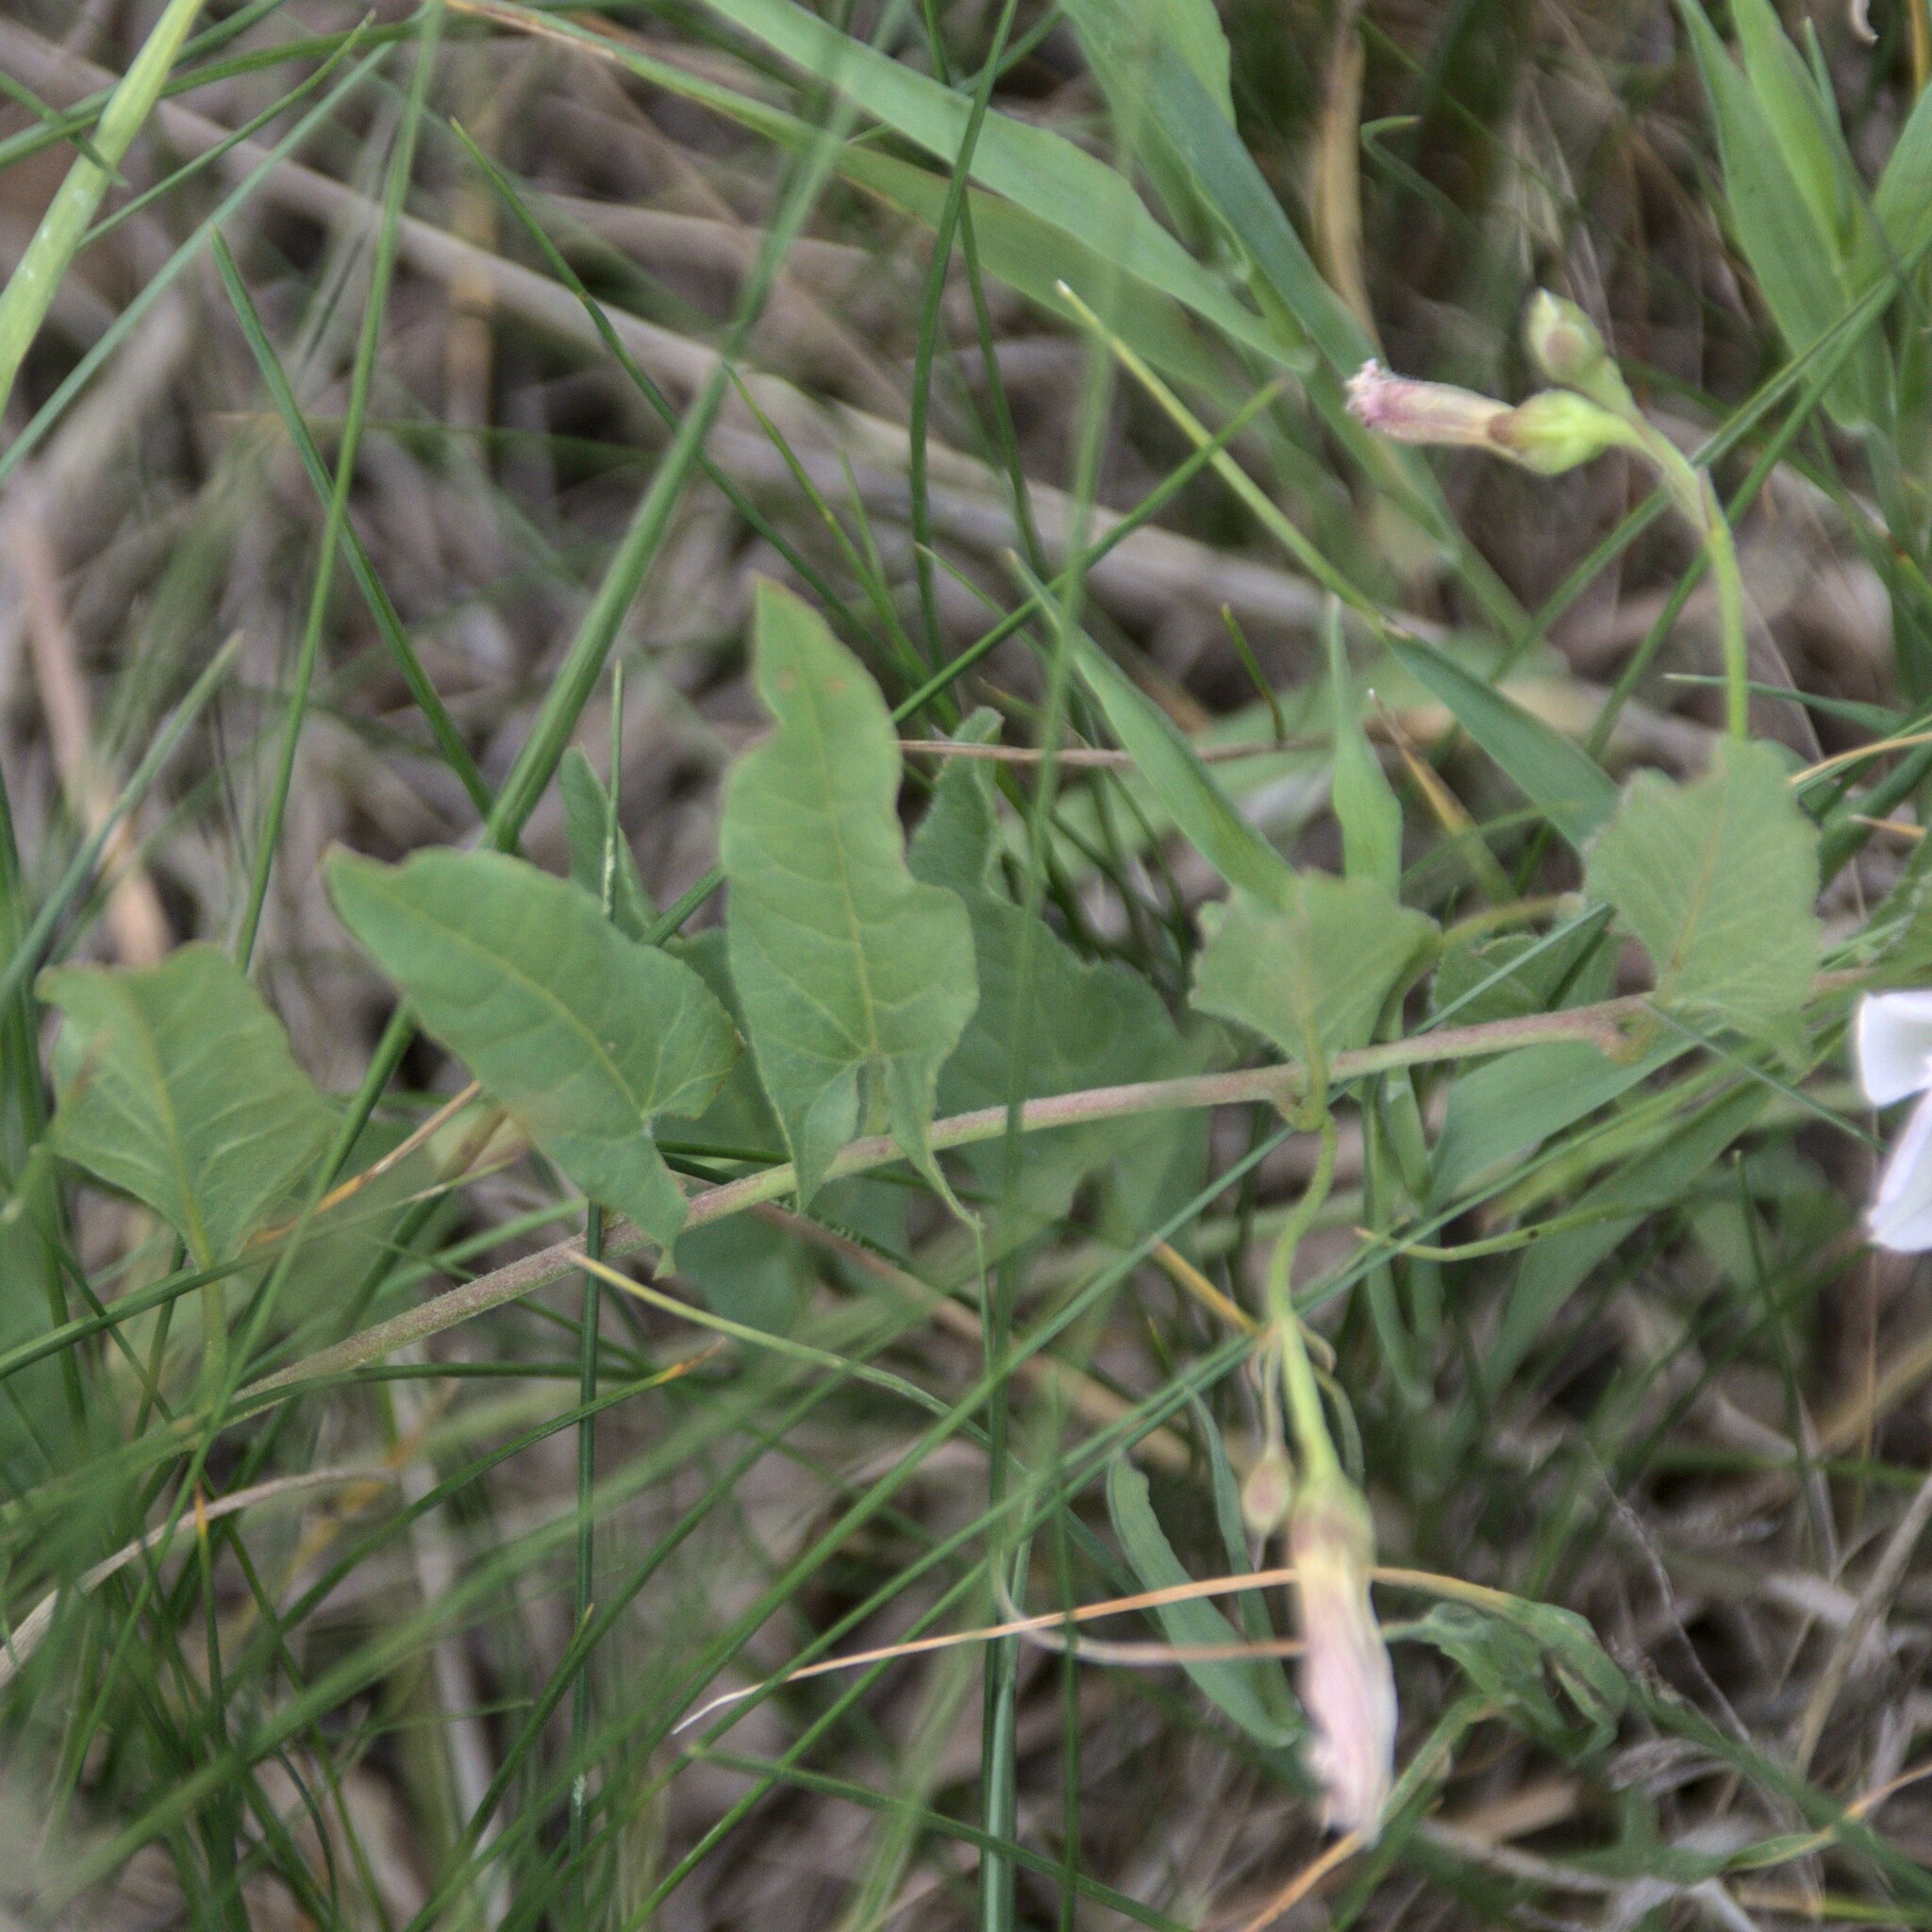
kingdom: Plantae
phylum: Tracheophyta
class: Magnoliopsida
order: Solanales
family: Convolvulaceae
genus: Convolvulus
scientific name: Convolvulus arvensis
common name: Field bindweed
